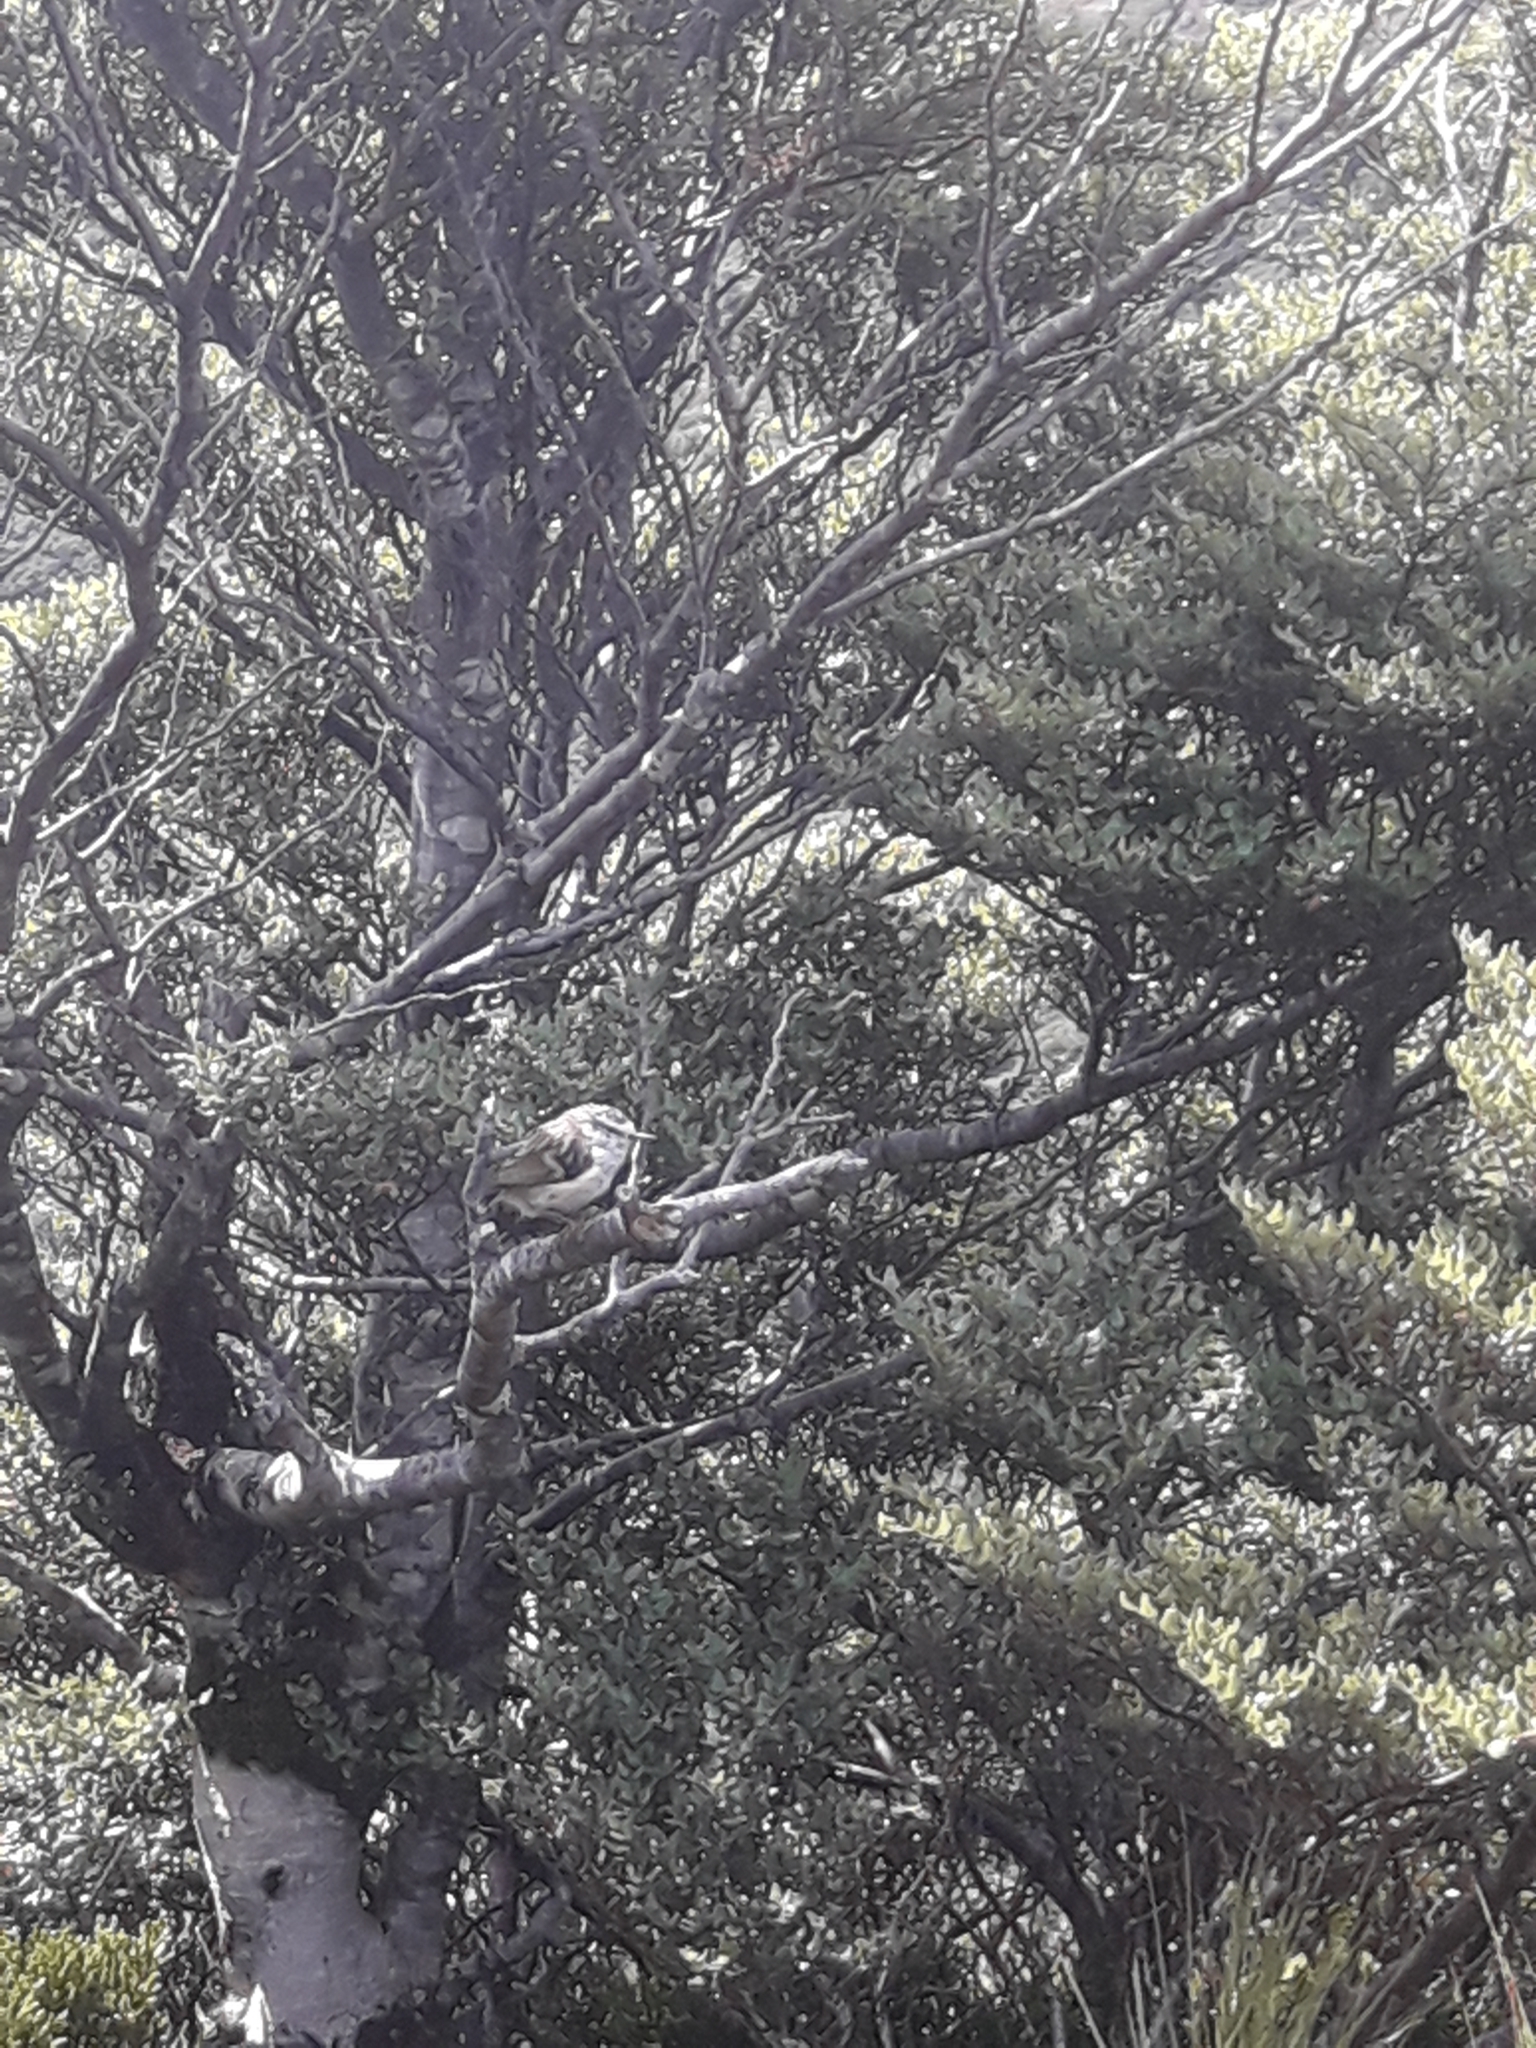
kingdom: Animalia
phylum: Chordata
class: Aves
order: Passeriformes
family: Acanthisittidae
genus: Acanthisitta
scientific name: Acanthisitta chloris
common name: Rifleman
